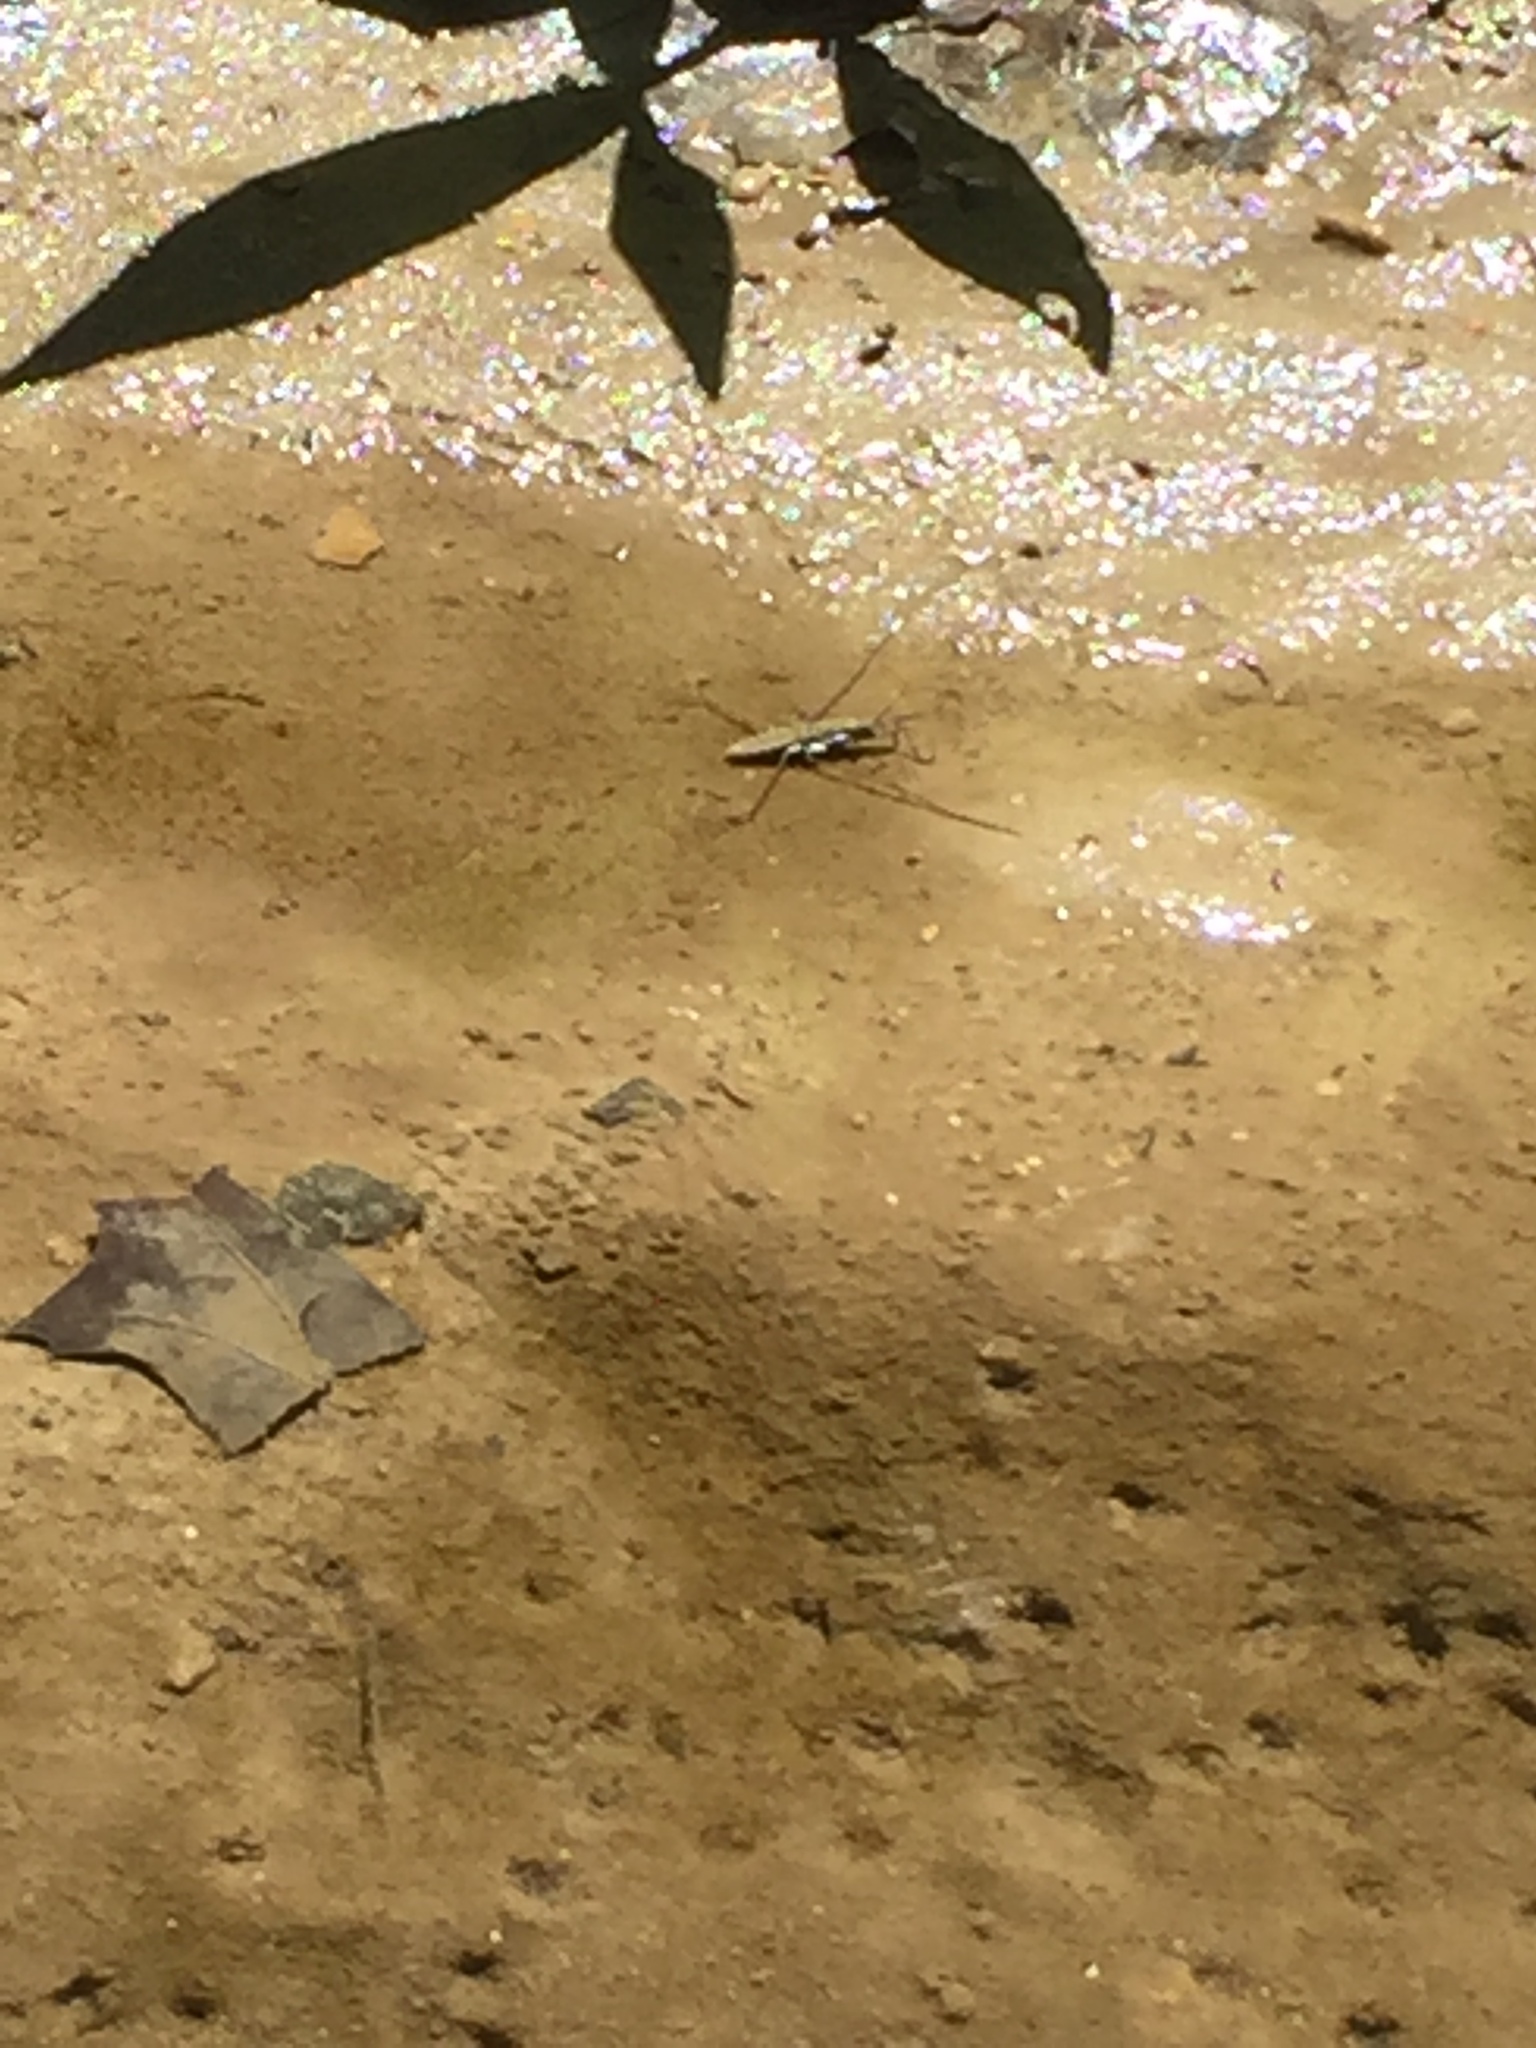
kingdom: Animalia
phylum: Arthropoda
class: Insecta
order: Hemiptera
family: Gerridae
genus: Aquarius
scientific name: Aquarius remigis
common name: Common water strider
